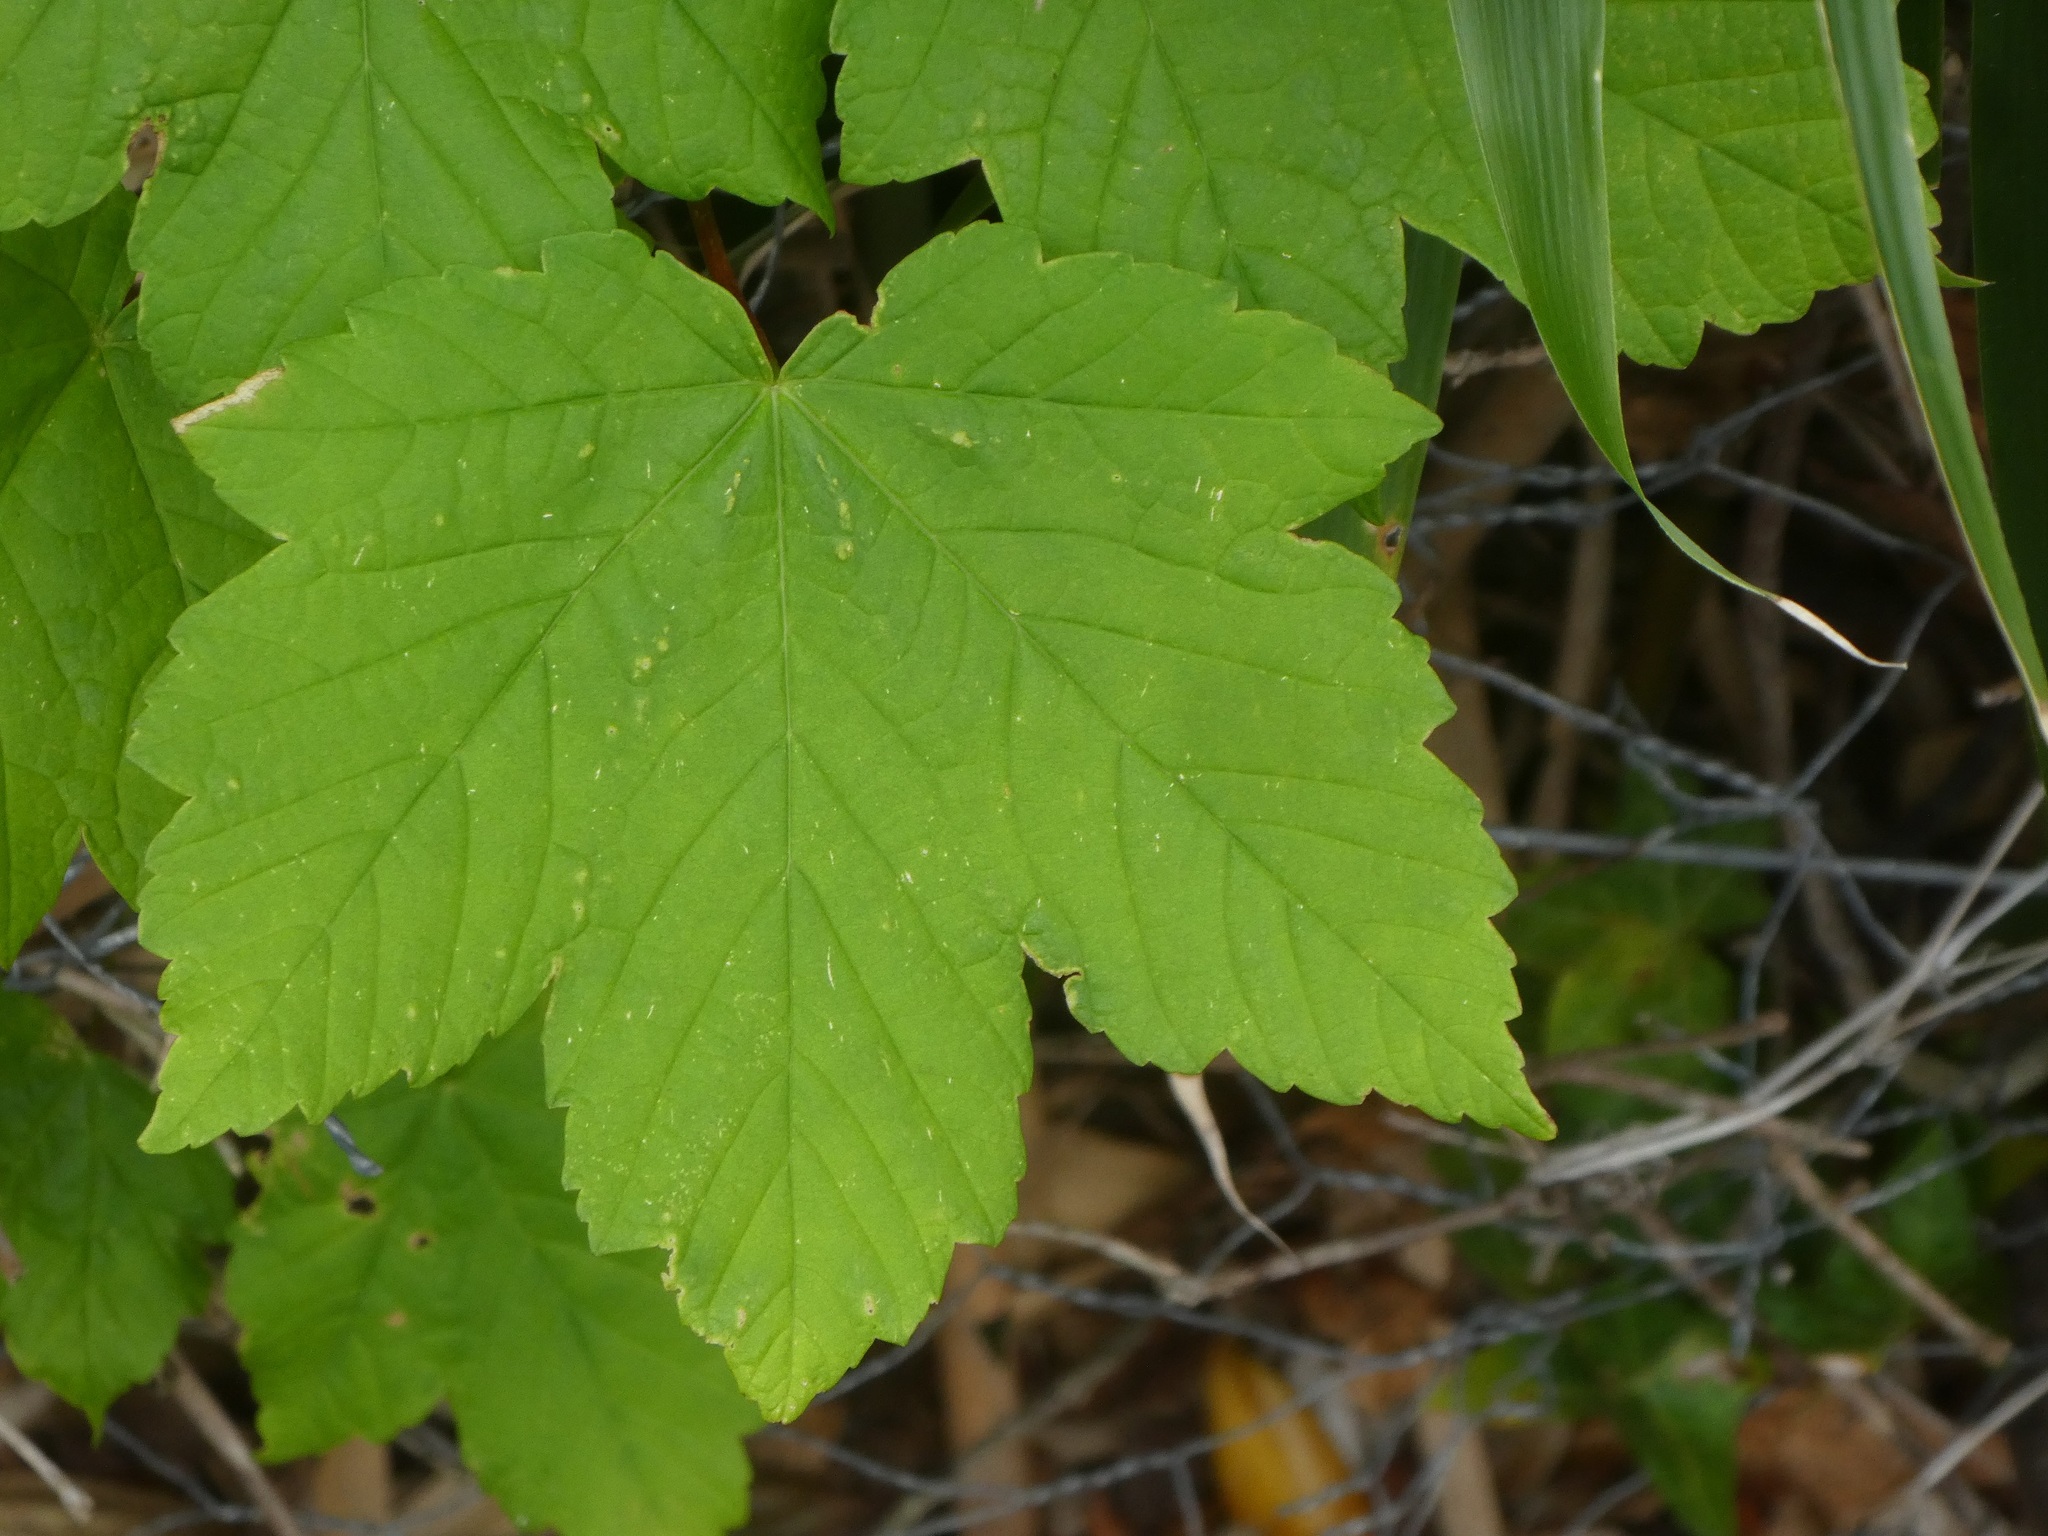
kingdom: Plantae
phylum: Tracheophyta
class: Magnoliopsida
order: Sapindales
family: Sapindaceae
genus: Acer
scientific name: Acer pseudoplatanus
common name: Sycamore
